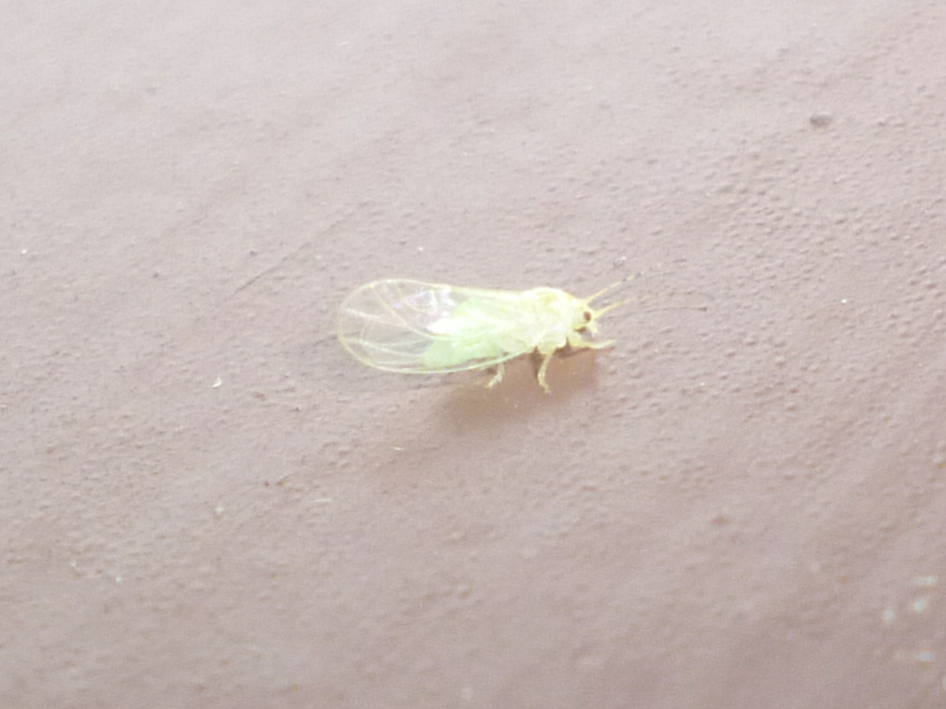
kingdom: Animalia
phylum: Arthropoda
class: Insecta
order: Hemiptera
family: Psyllidae
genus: Cacopsylla
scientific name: Cacopsylla annulata
